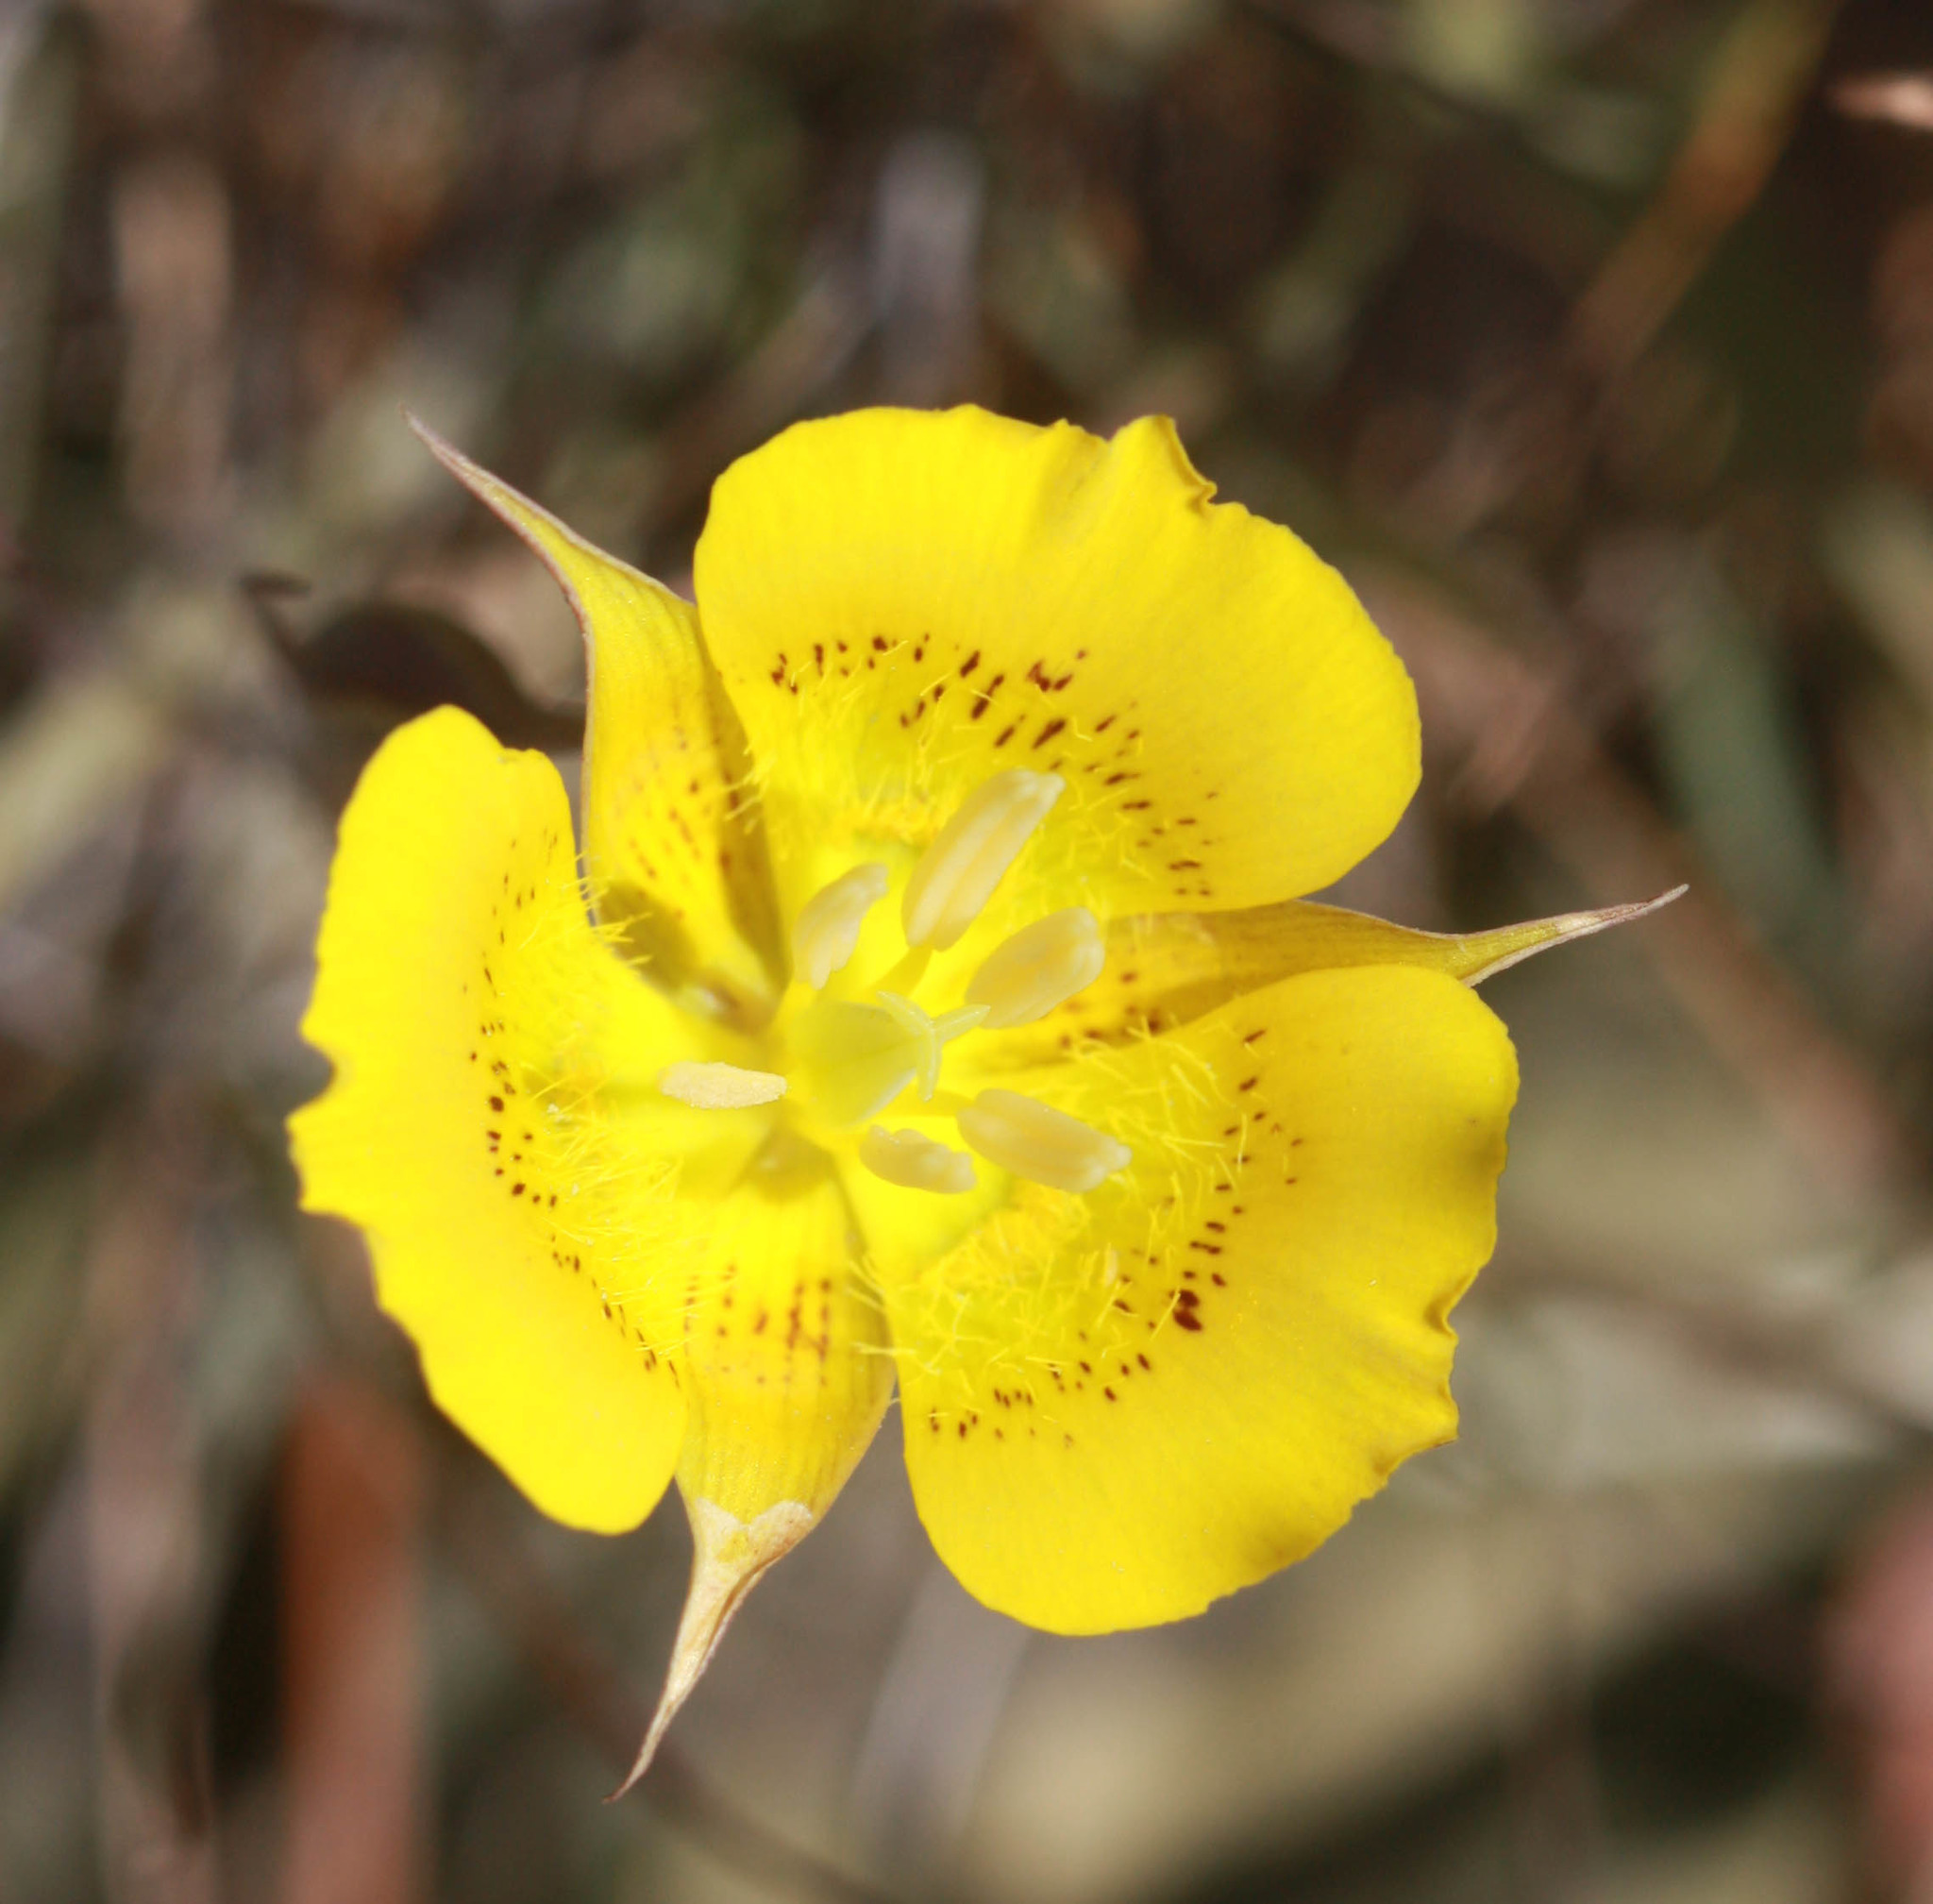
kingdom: Plantae
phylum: Tracheophyta
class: Liliopsida
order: Liliales
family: Liliaceae
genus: Calochortus
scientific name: Calochortus luteus
